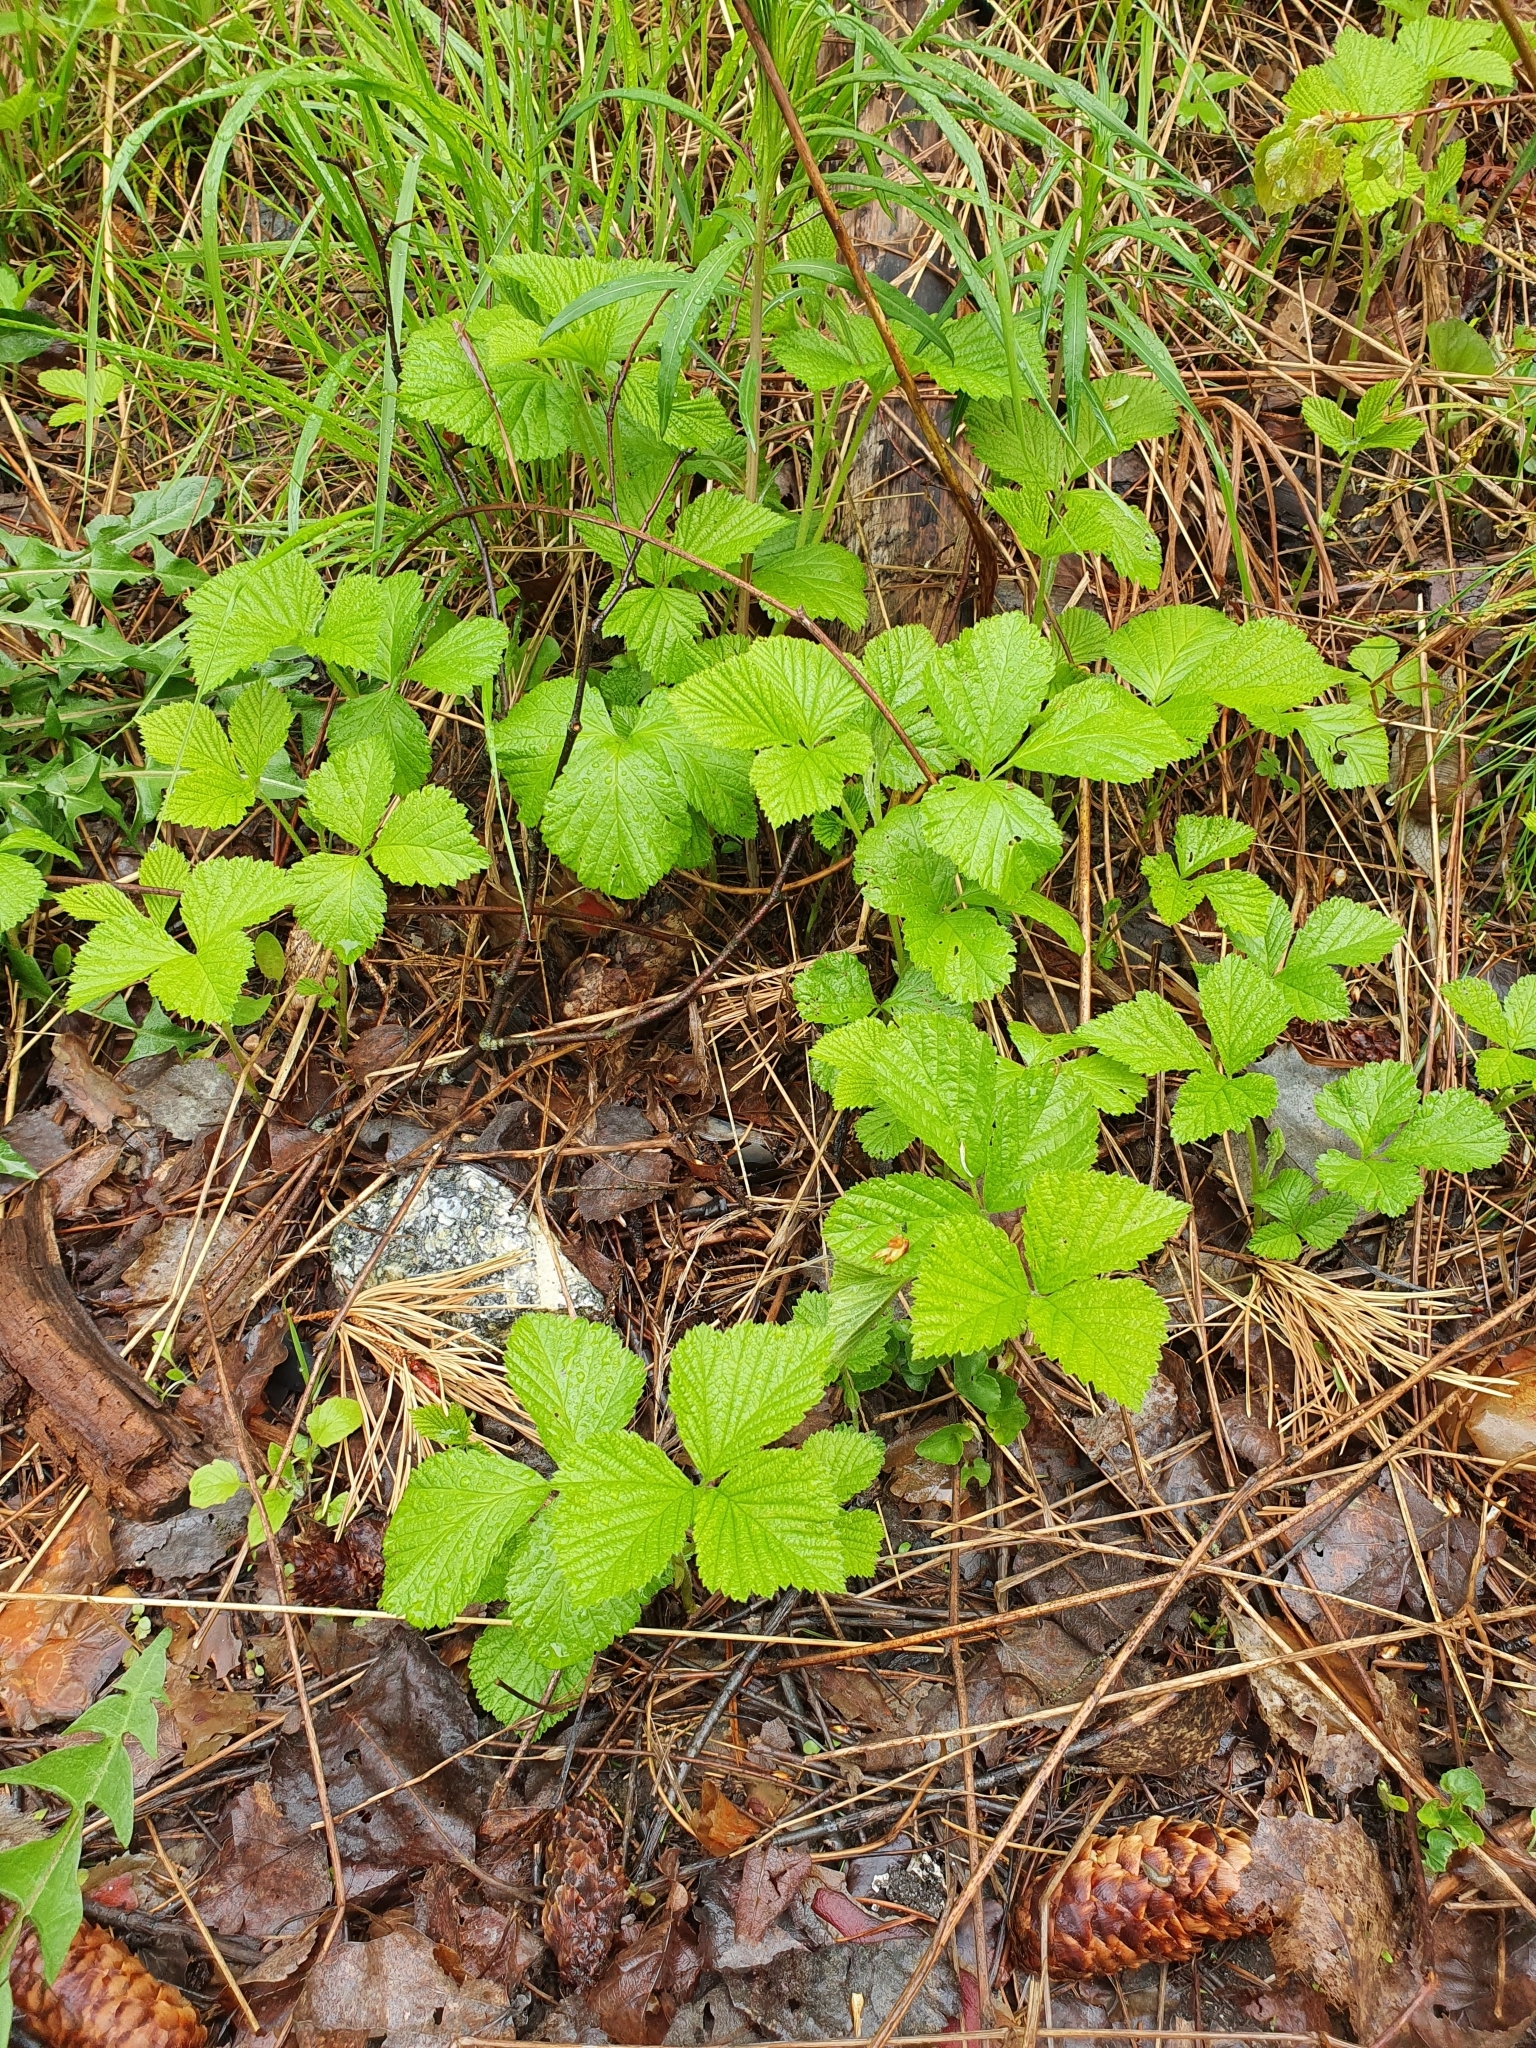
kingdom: Plantae
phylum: Tracheophyta
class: Magnoliopsida
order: Rosales
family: Rosaceae
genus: Rubus
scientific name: Rubus saxatilis
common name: Stone bramble
